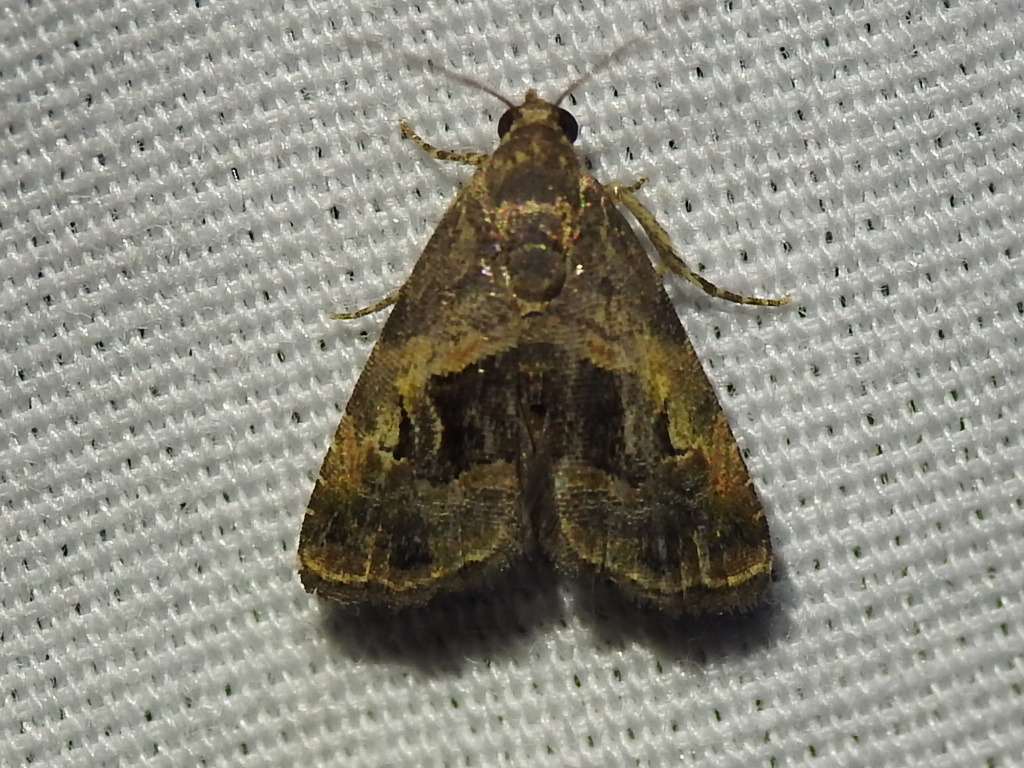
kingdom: Animalia
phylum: Arthropoda
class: Insecta
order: Lepidoptera
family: Noctuidae
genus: Tripudia
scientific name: Tripudia quadrifera
